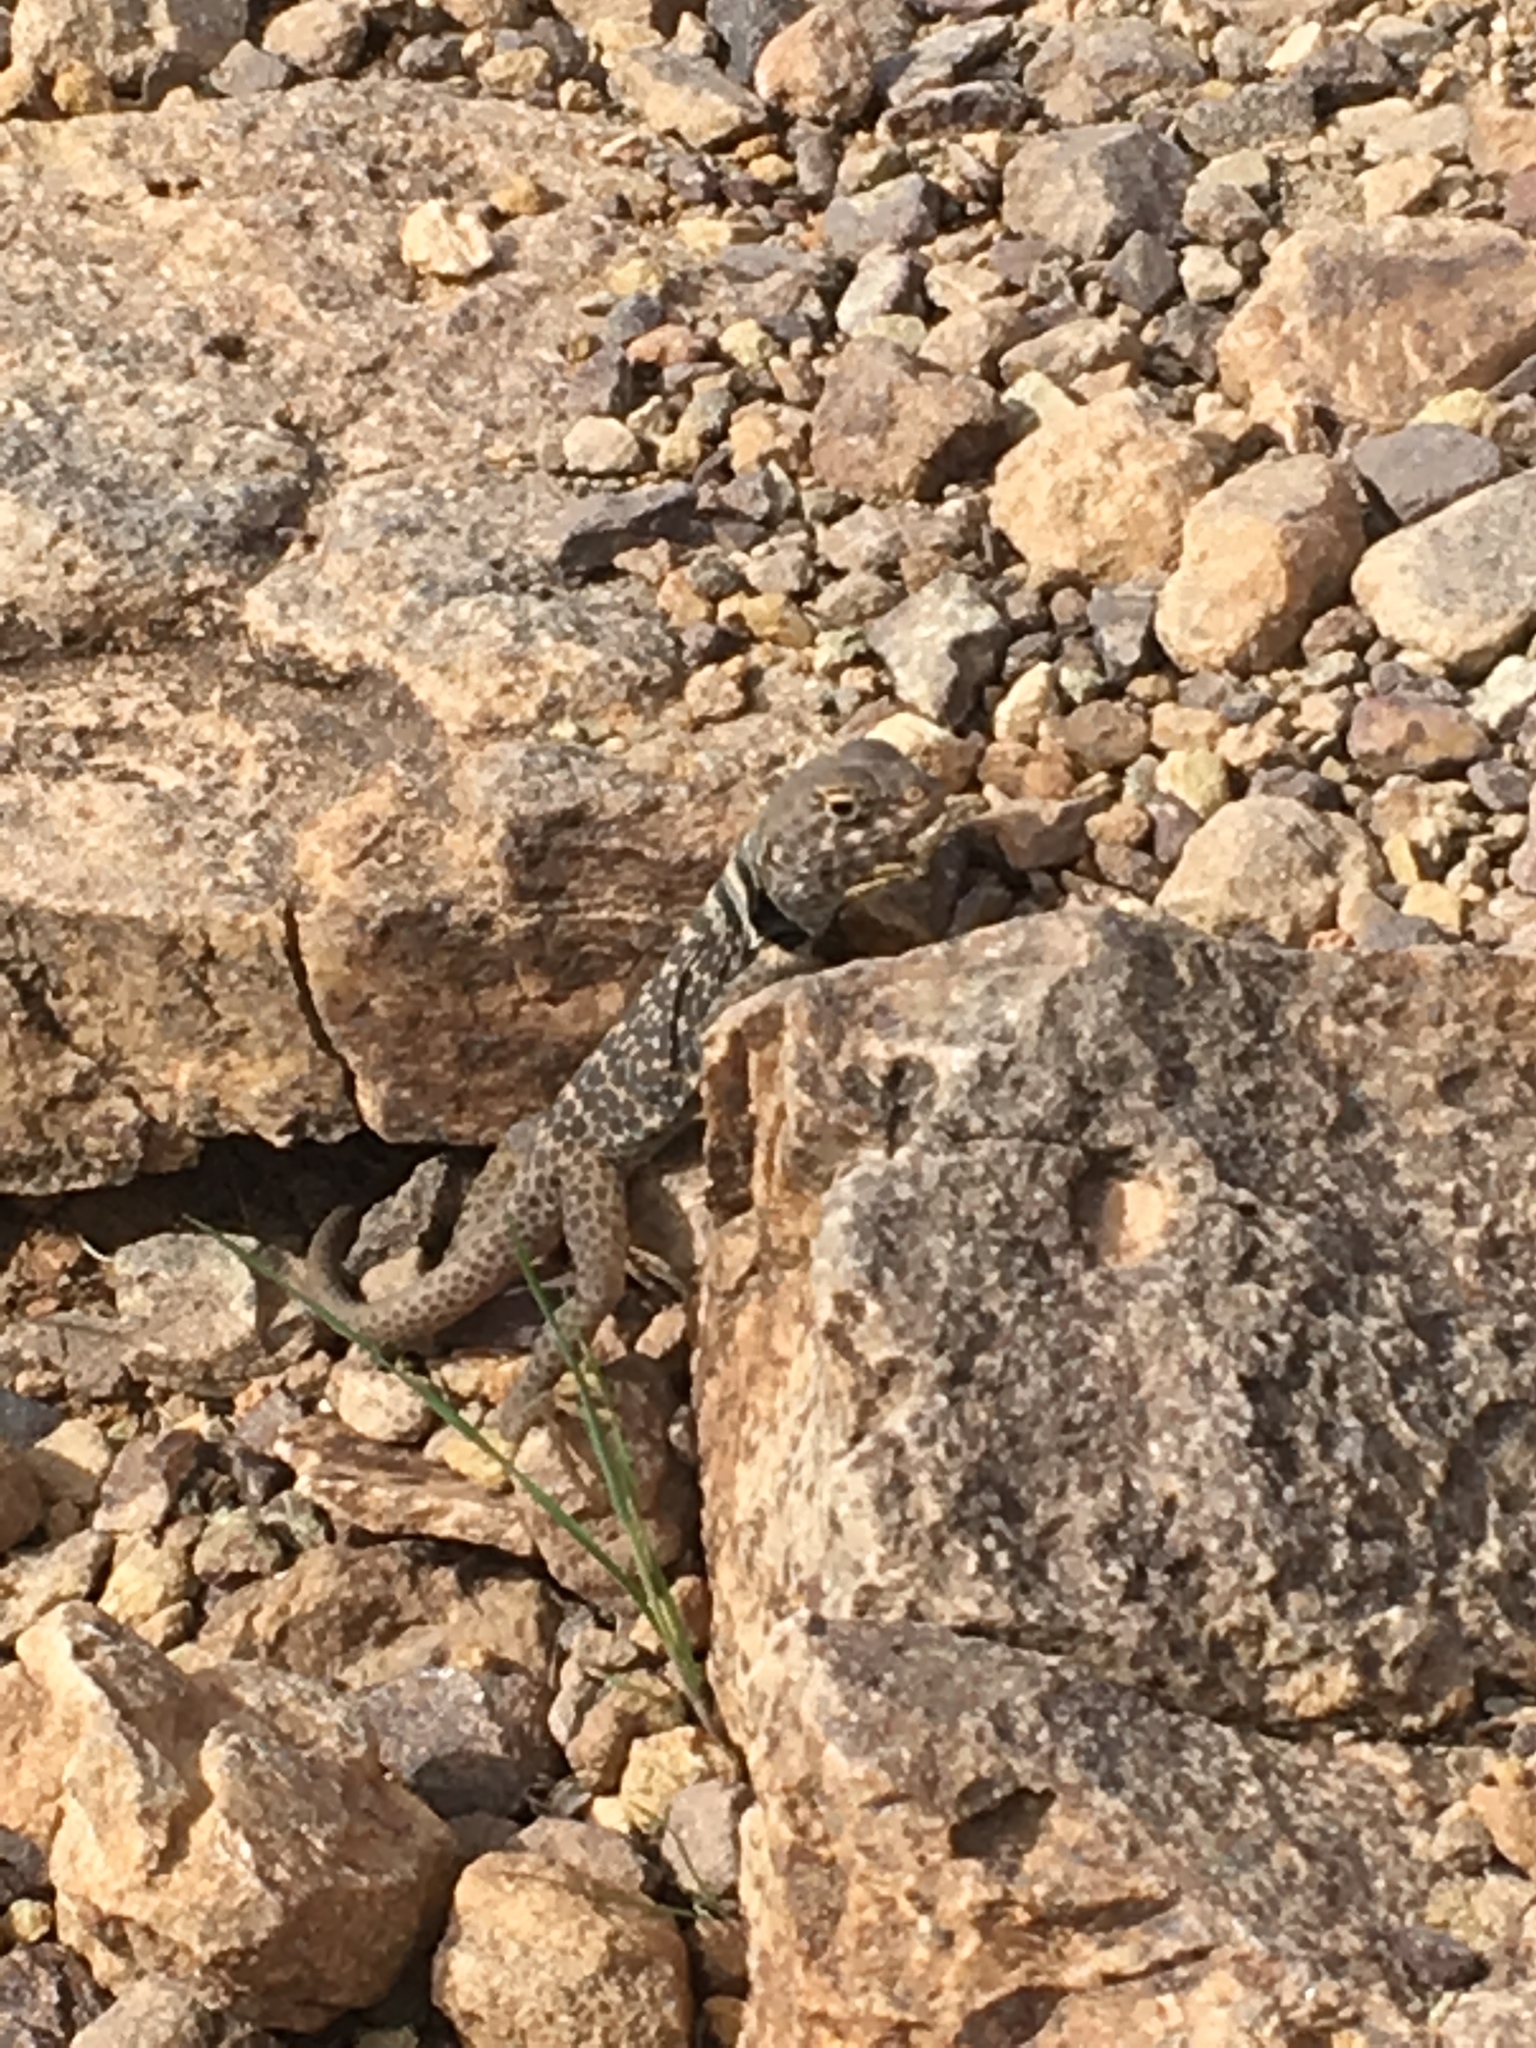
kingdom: Animalia
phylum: Chordata
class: Squamata
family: Crotaphytidae
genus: Crotaphytus
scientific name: Crotaphytus bicinctores
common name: Mojave black-collared lizard
